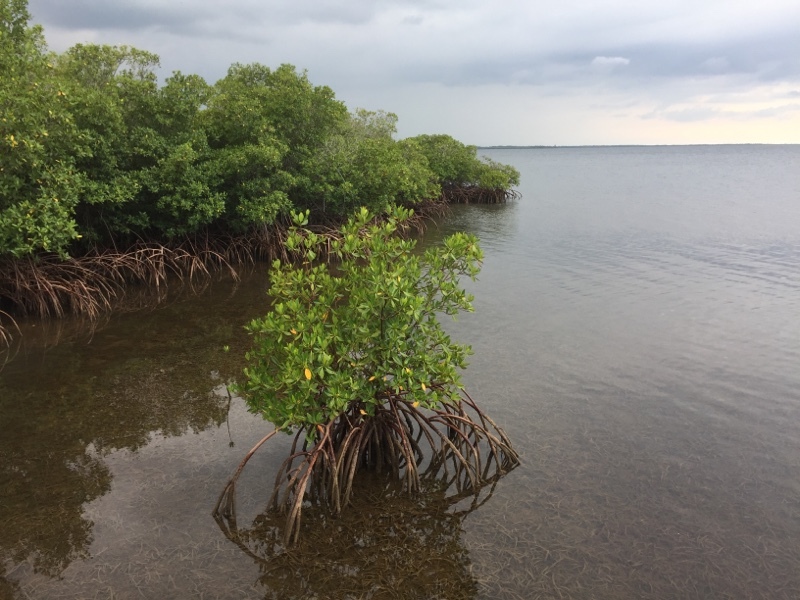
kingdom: Plantae
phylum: Tracheophyta
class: Magnoliopsida
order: Malpighiales
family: Rhizophoraceae
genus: Rhizophora
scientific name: Rhizophora mangle
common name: Red mangrove
